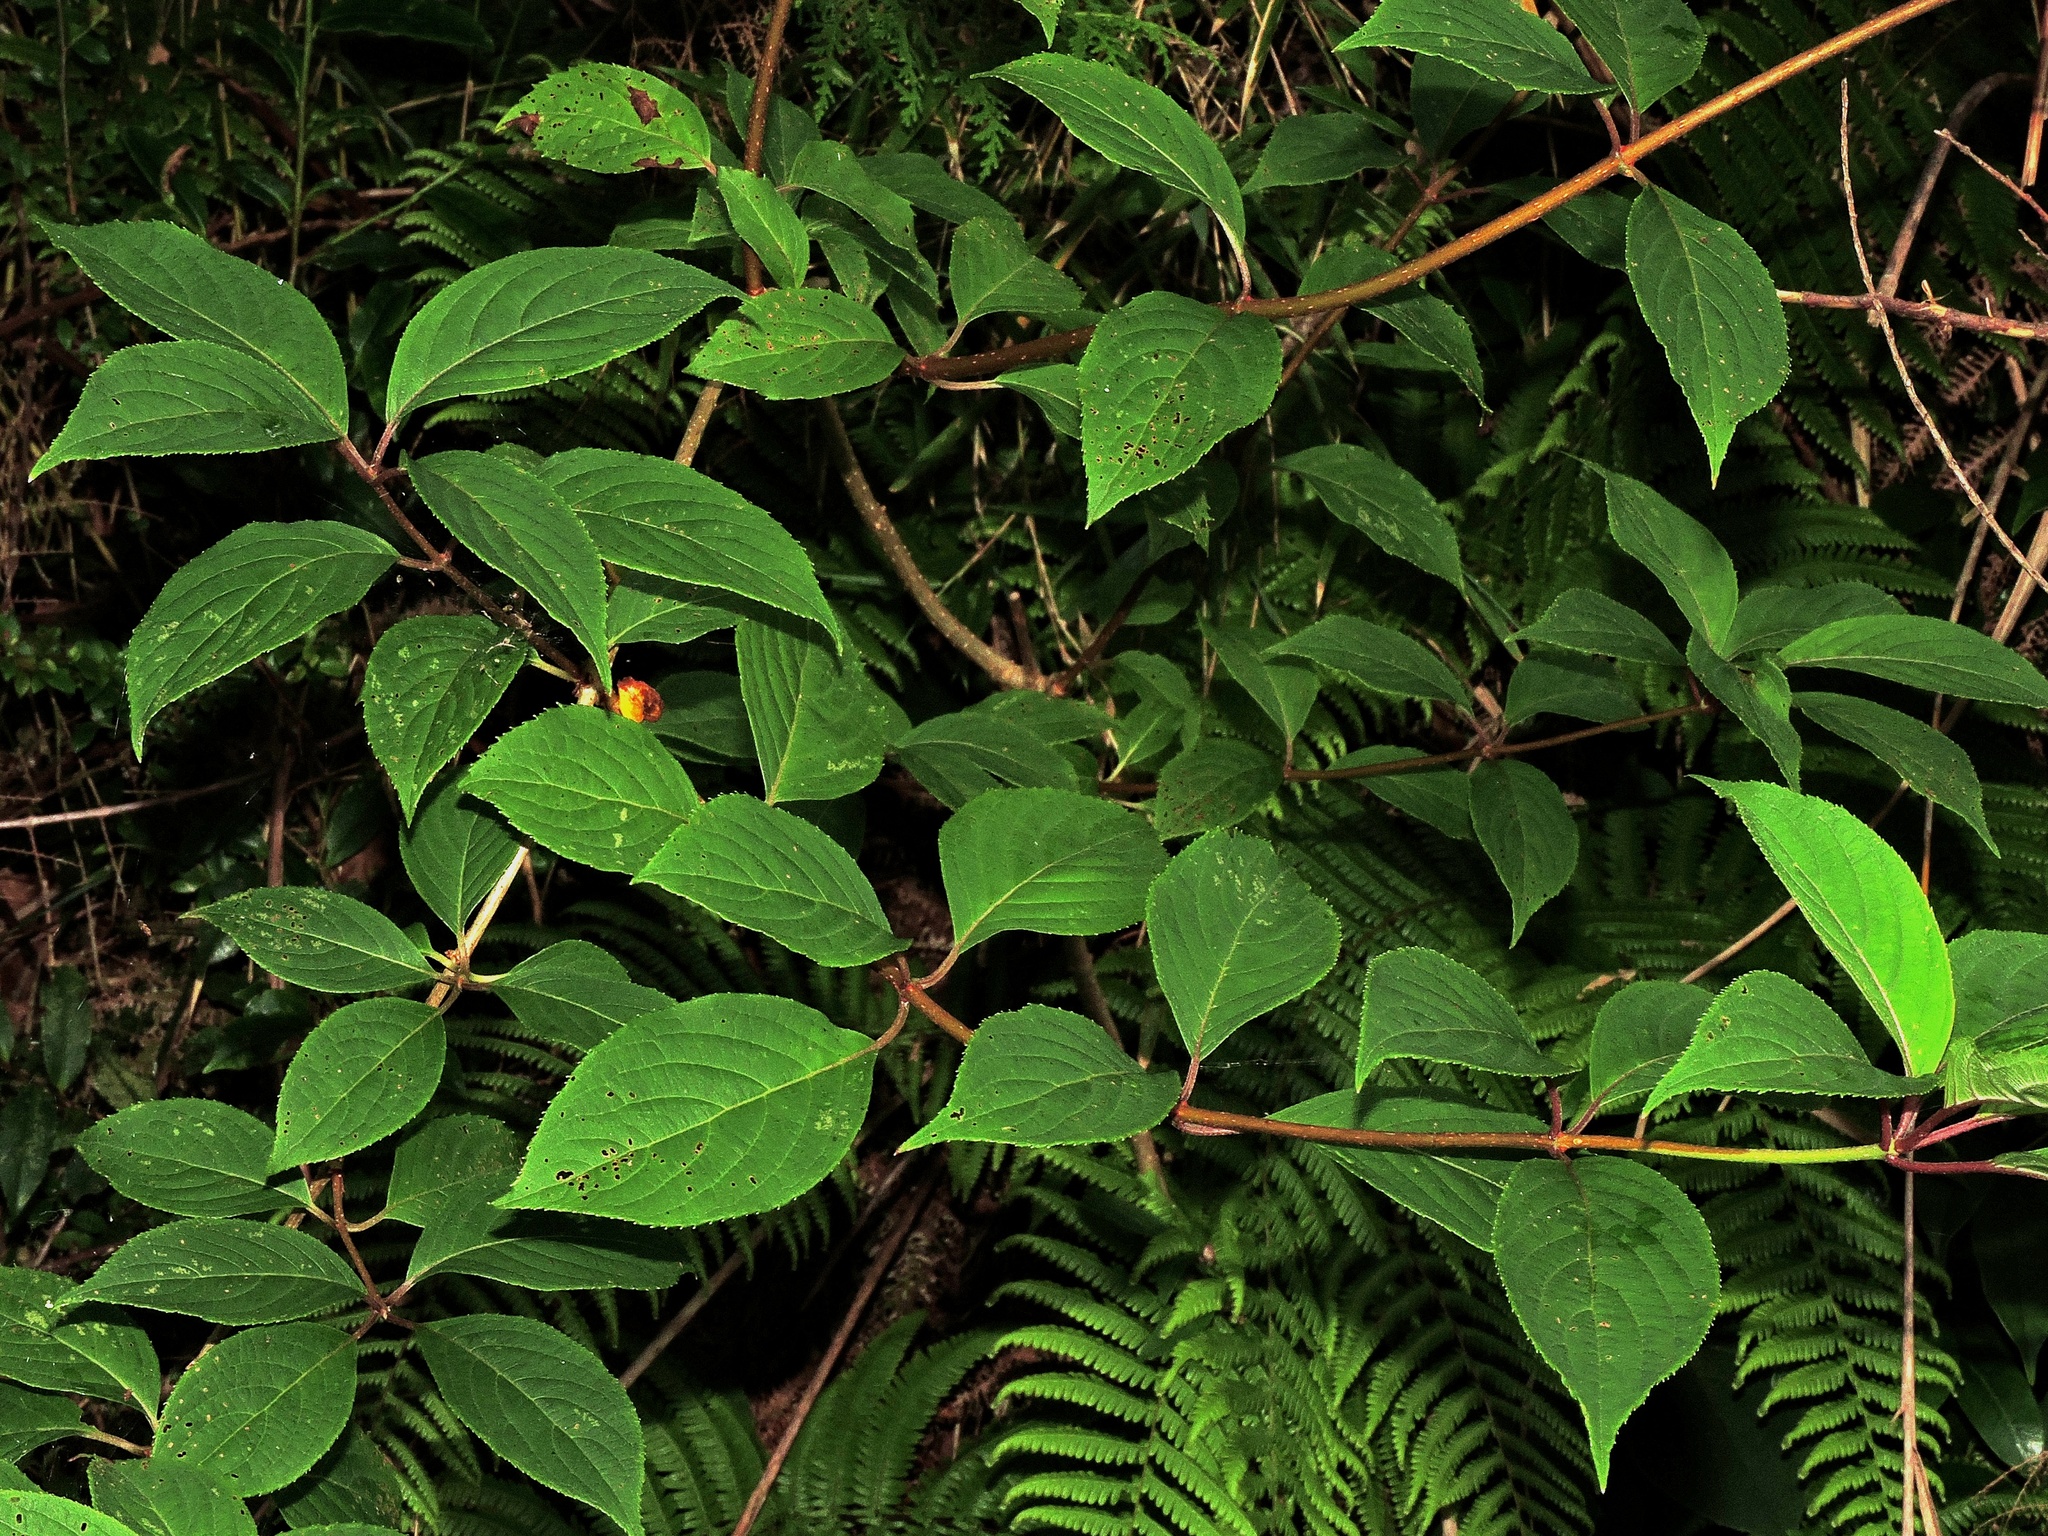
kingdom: Plantae
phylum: Tracheophyta
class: Magnoliopsida
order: Cornales
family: Hydrangeaceae
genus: Hydrangea
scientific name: Hydrangea paniculata
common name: Panicled hydrangea
